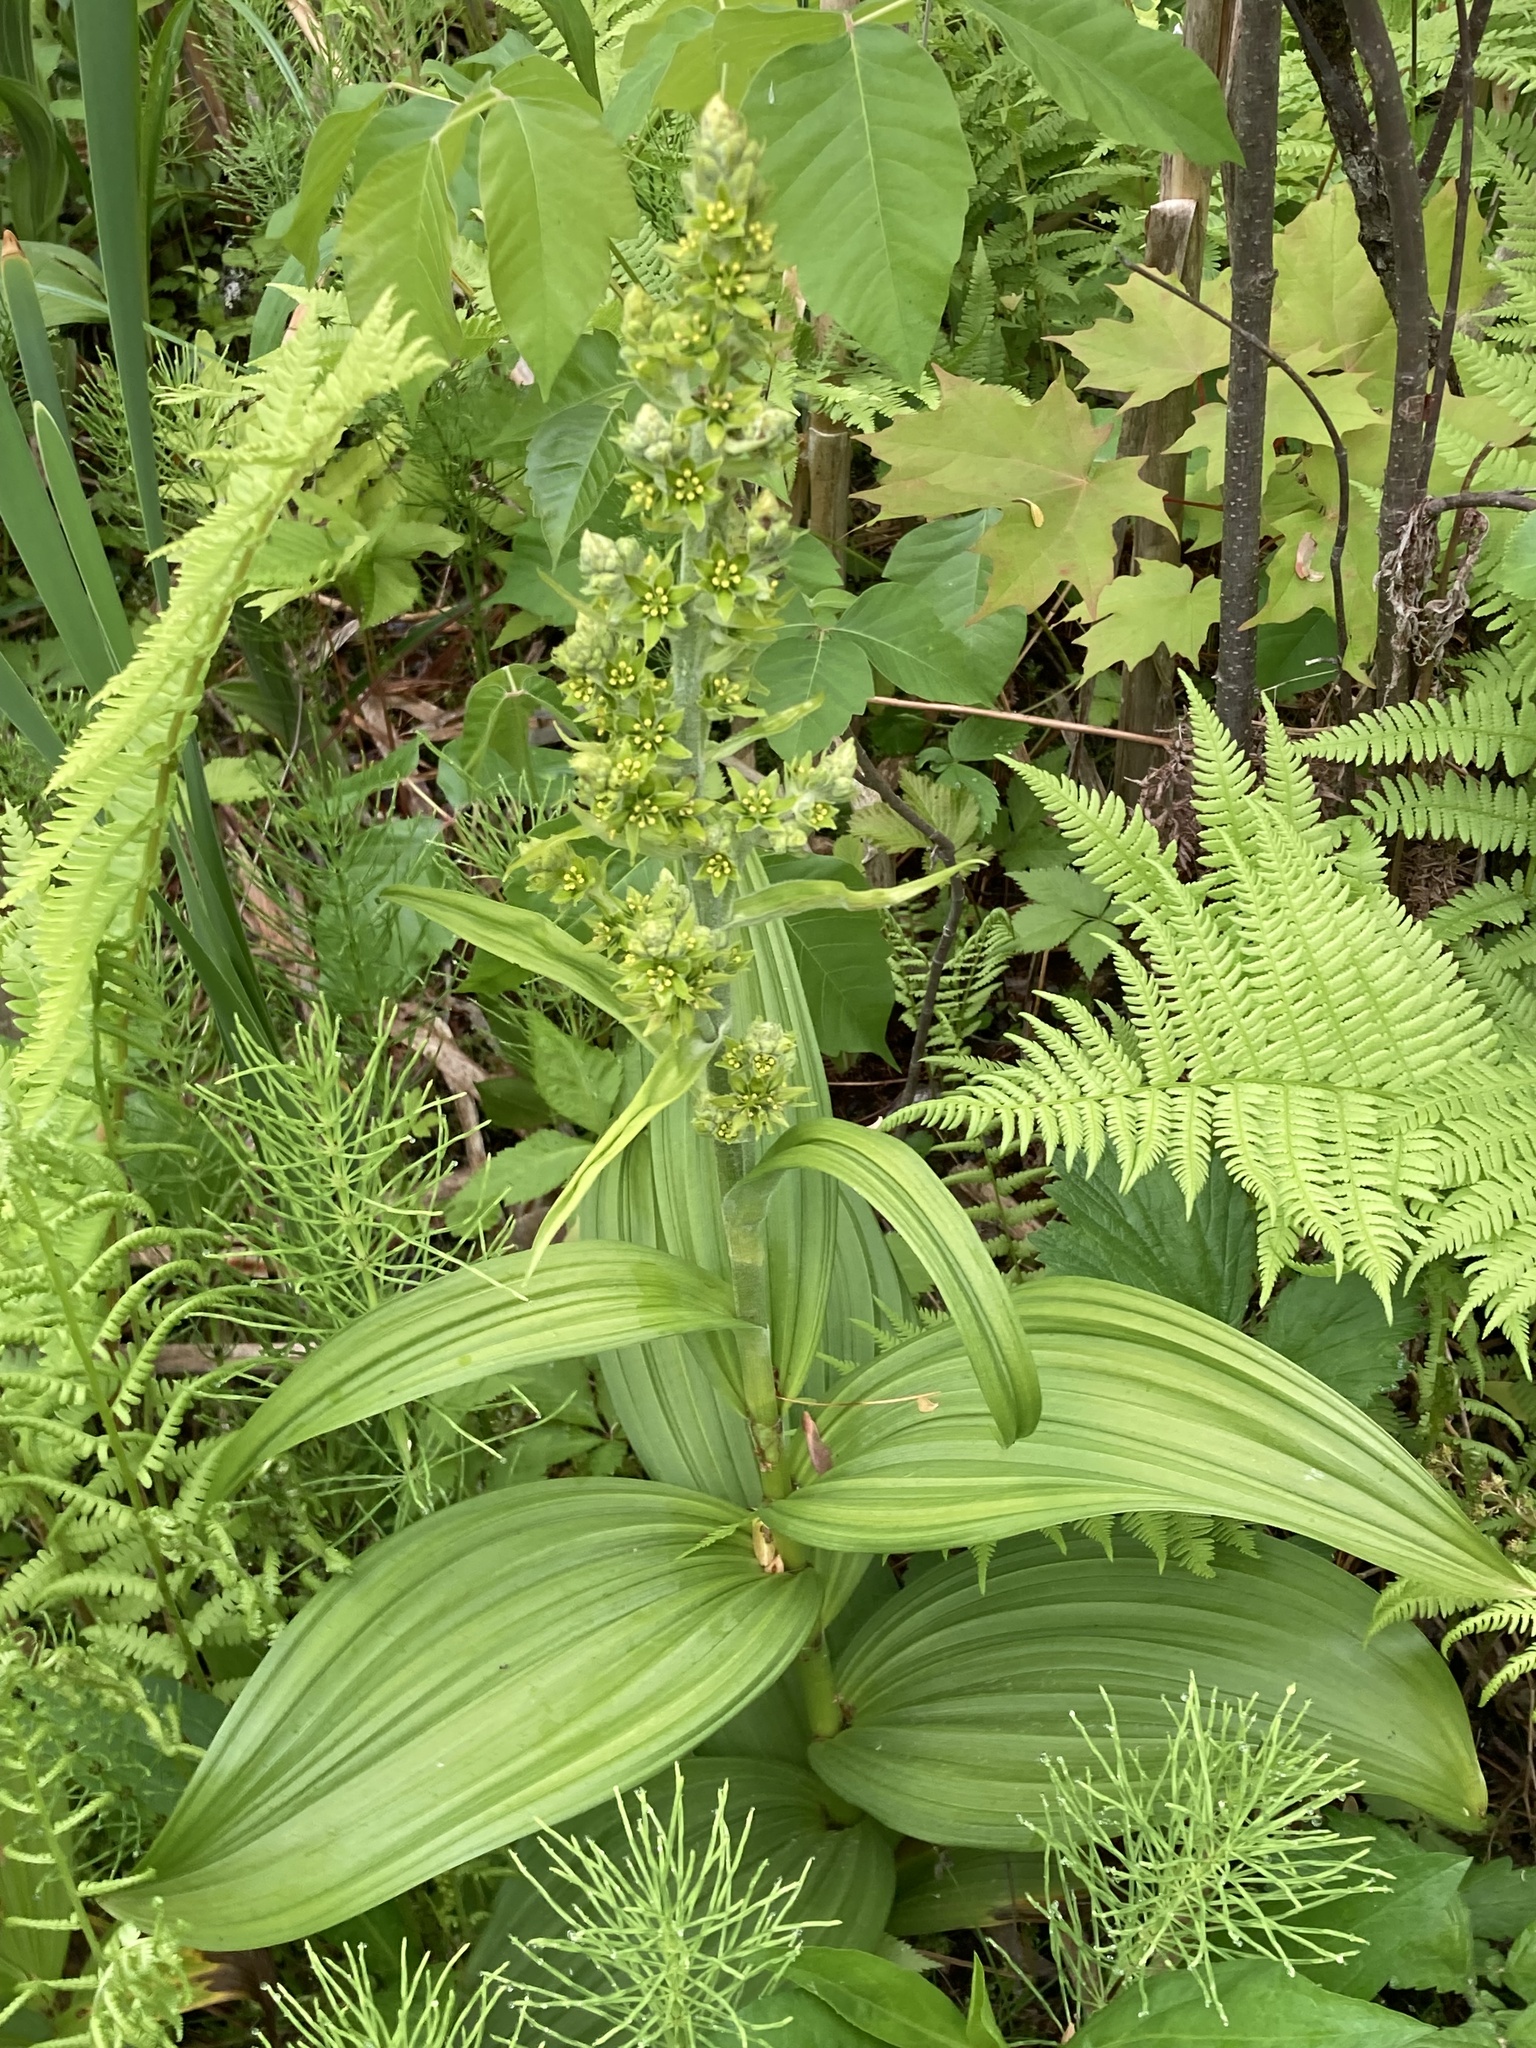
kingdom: Plantae
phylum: Tracheophyta
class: Liliopsida
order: Liliales
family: Melanthiaceae
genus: Veratrum
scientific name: Veratrum viride
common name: American false hellebore
